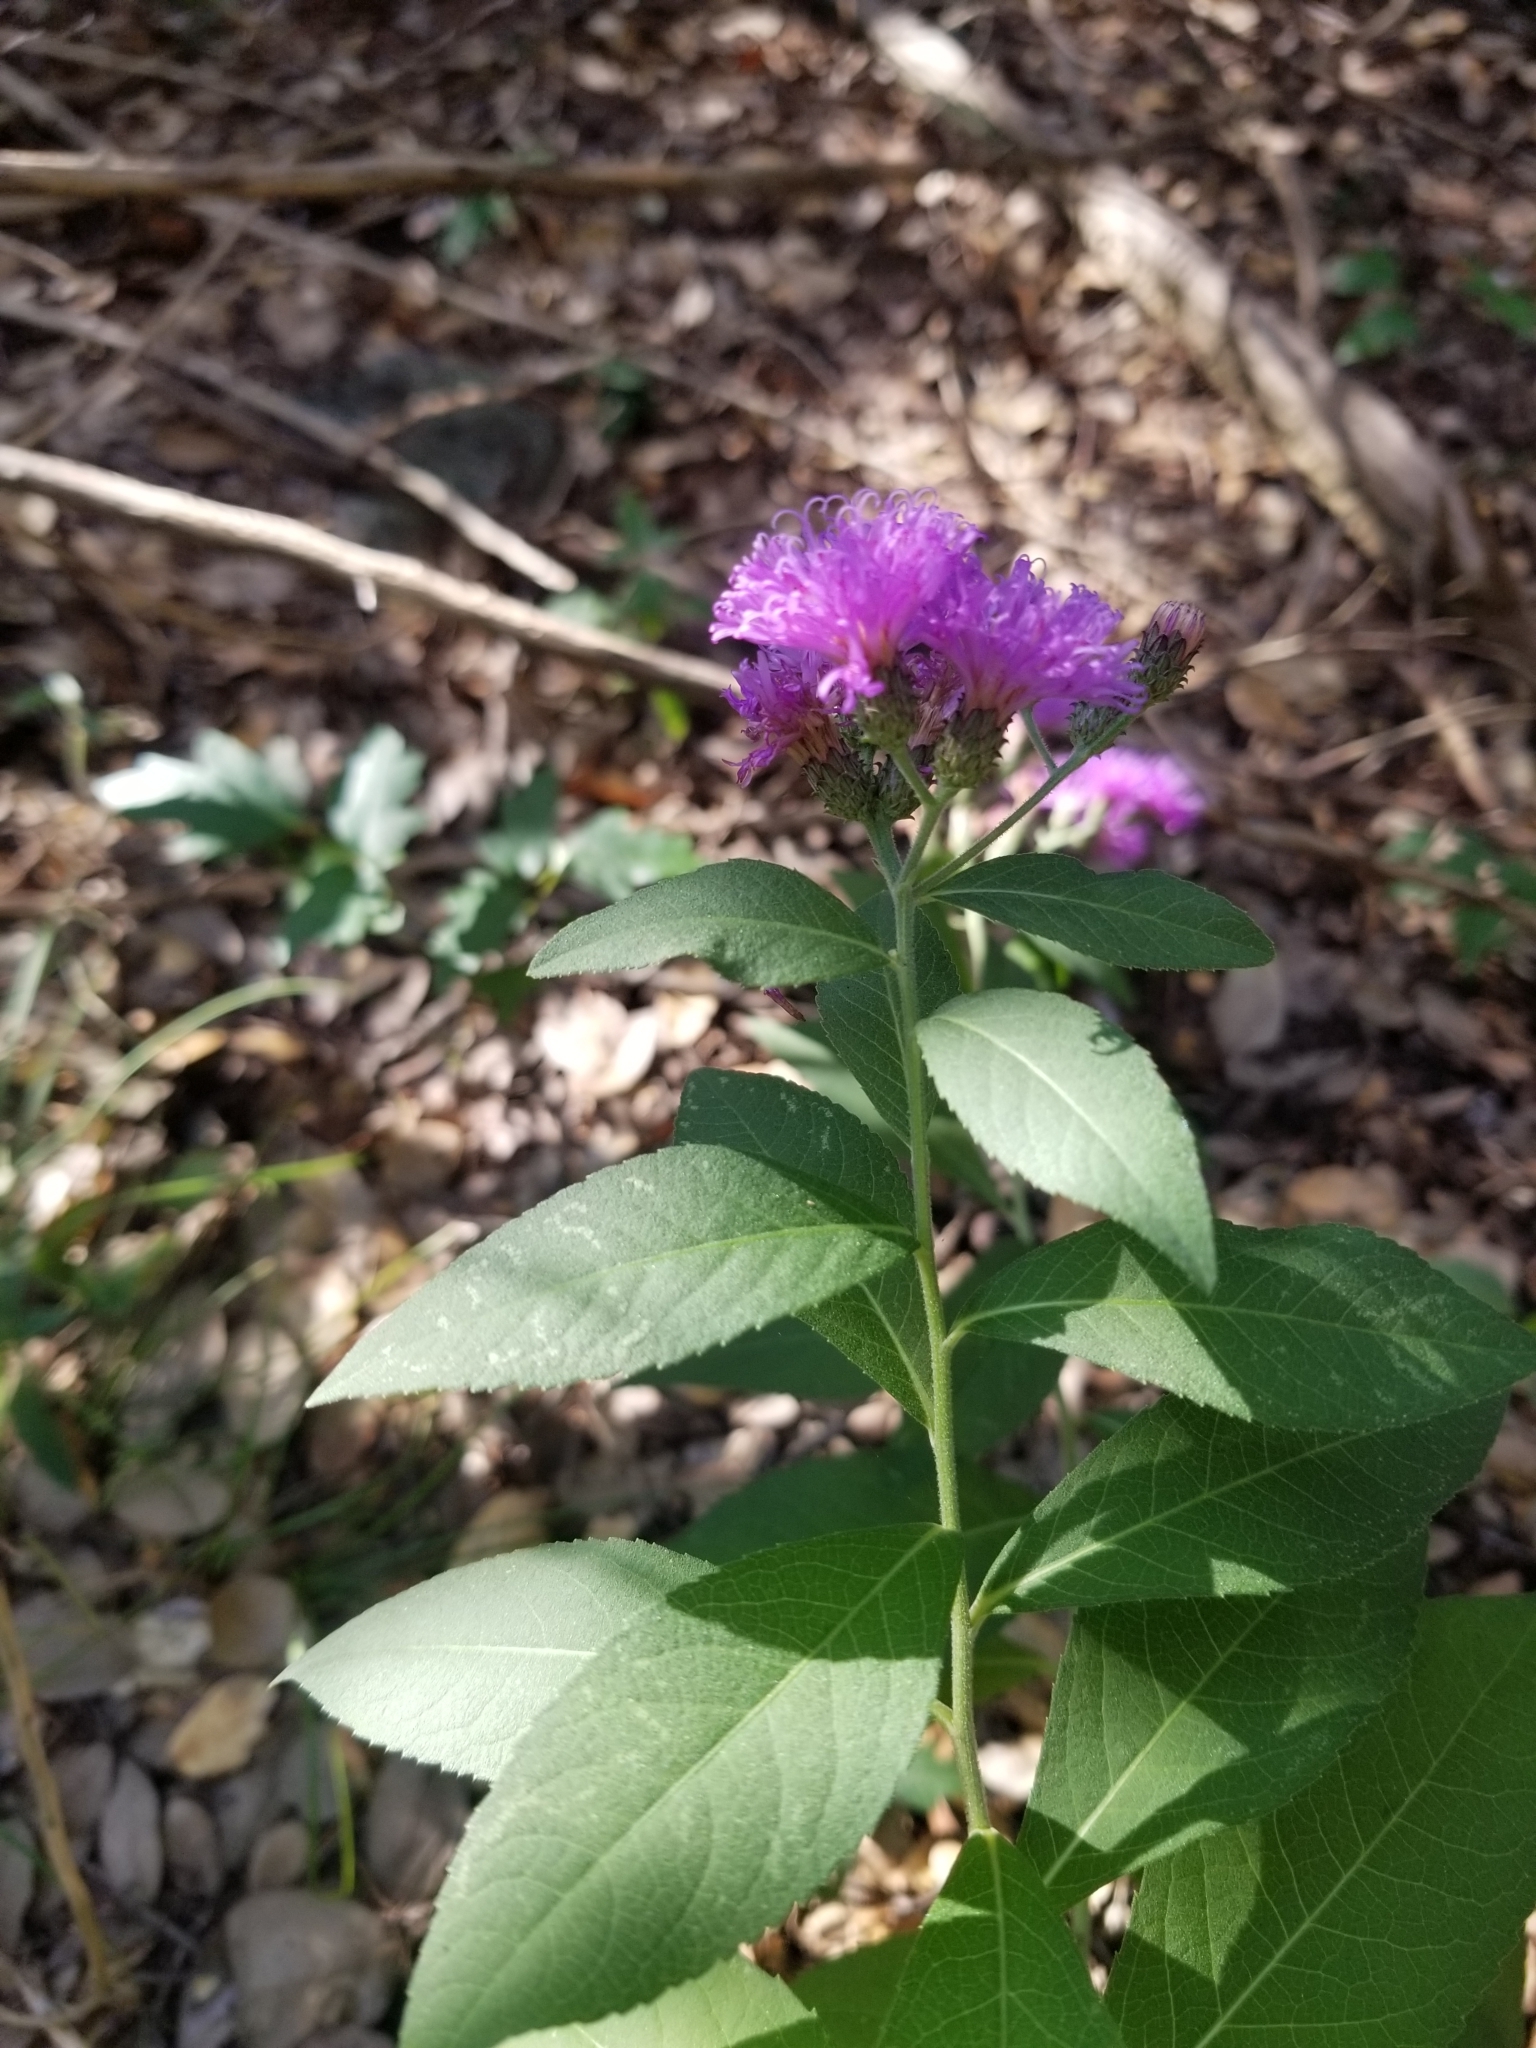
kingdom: Plantae
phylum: Tracheophyta
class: Magnoliopsida
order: Asterales
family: Asteraceae
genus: Vernonia
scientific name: Vernonia baldwinii
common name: Western ironweed
